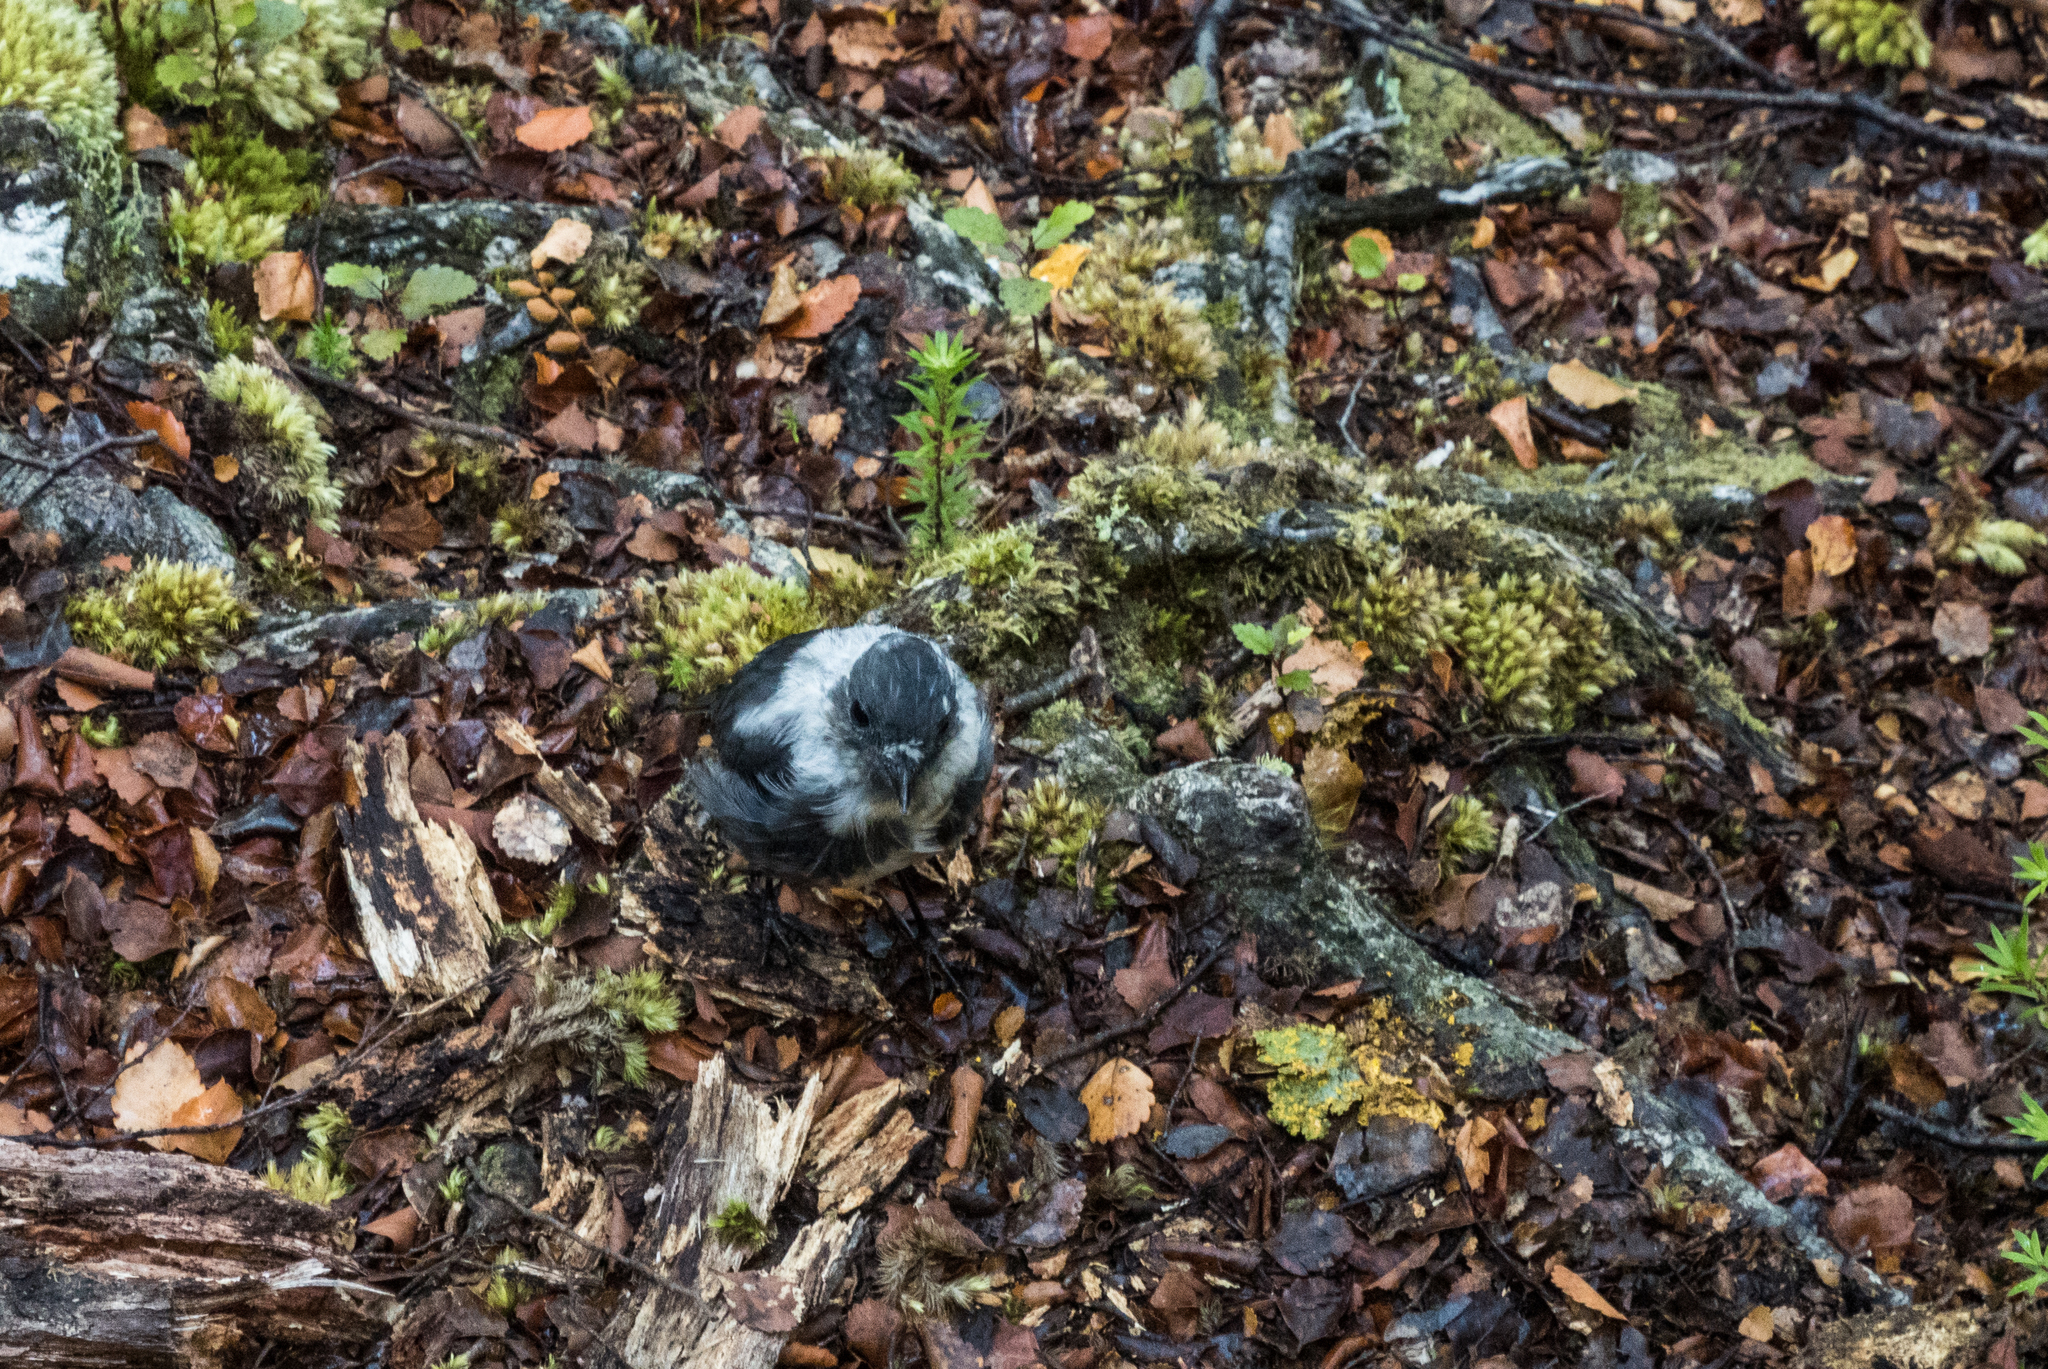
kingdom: Animalia
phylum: Chordata
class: Aves
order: Passeriformes
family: Petroicidae
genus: Petroica
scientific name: Petroica australis
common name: New zealand robin
